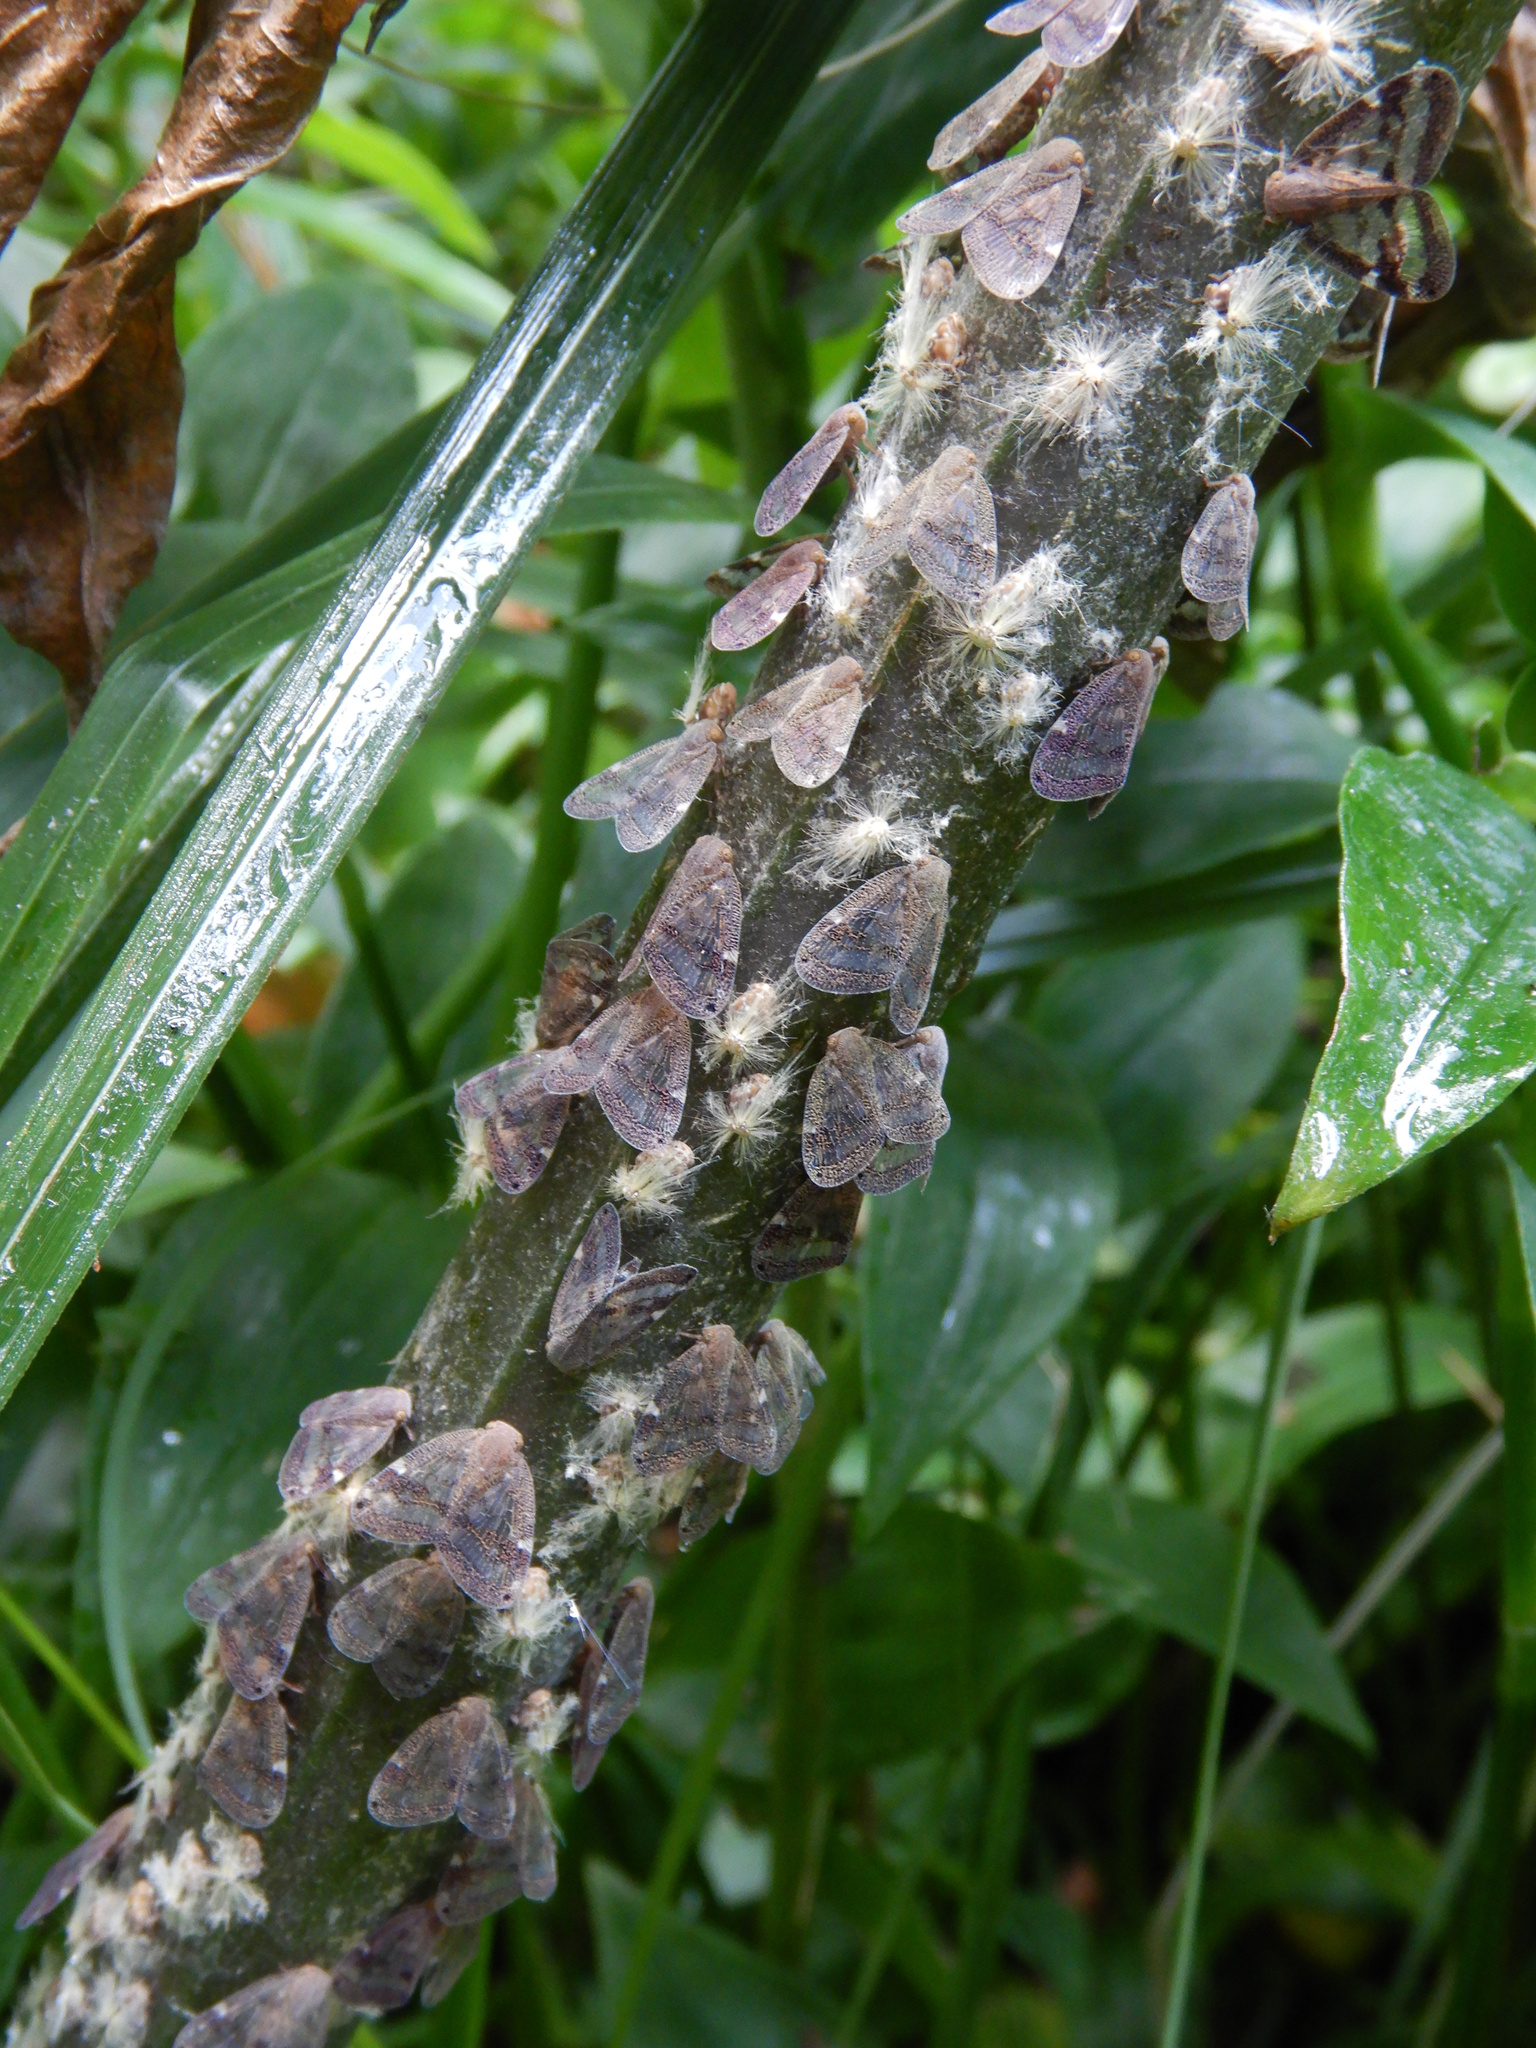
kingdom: Animalia
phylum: Arthropoda
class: Insecta
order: Hemiptera
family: Ricaniidae
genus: Scolypopa
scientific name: Scolypopa australis
